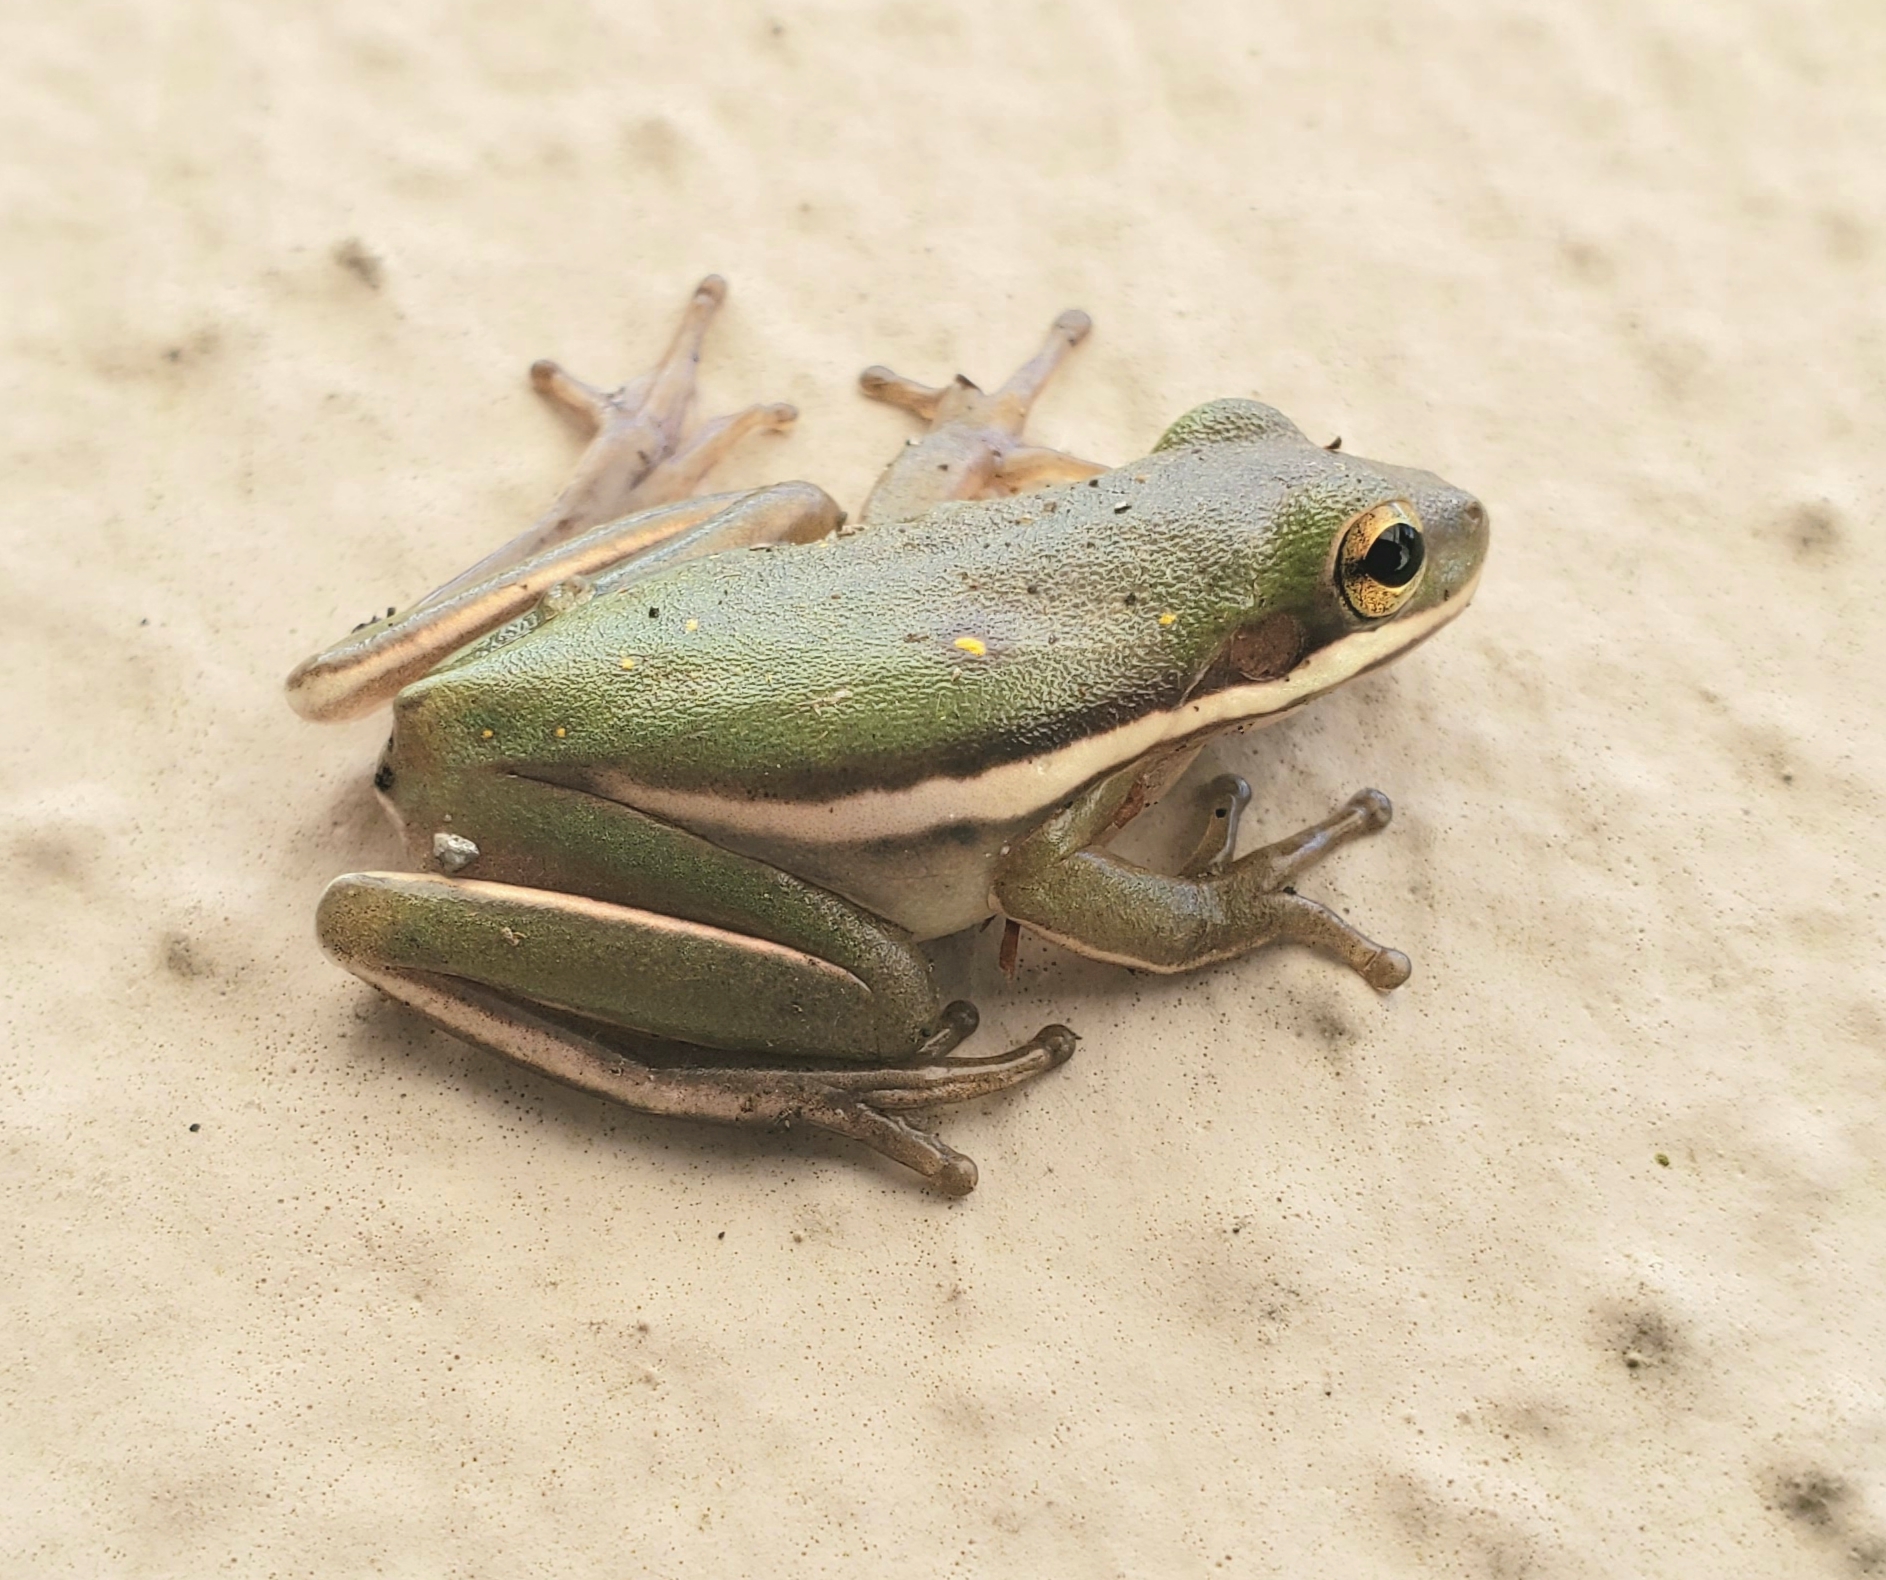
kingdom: Animalia
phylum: Chordata
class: Amphibia
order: Anura
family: Hylidae
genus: Dryophytes
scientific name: Dryophytes cinereus
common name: Green treefrog
